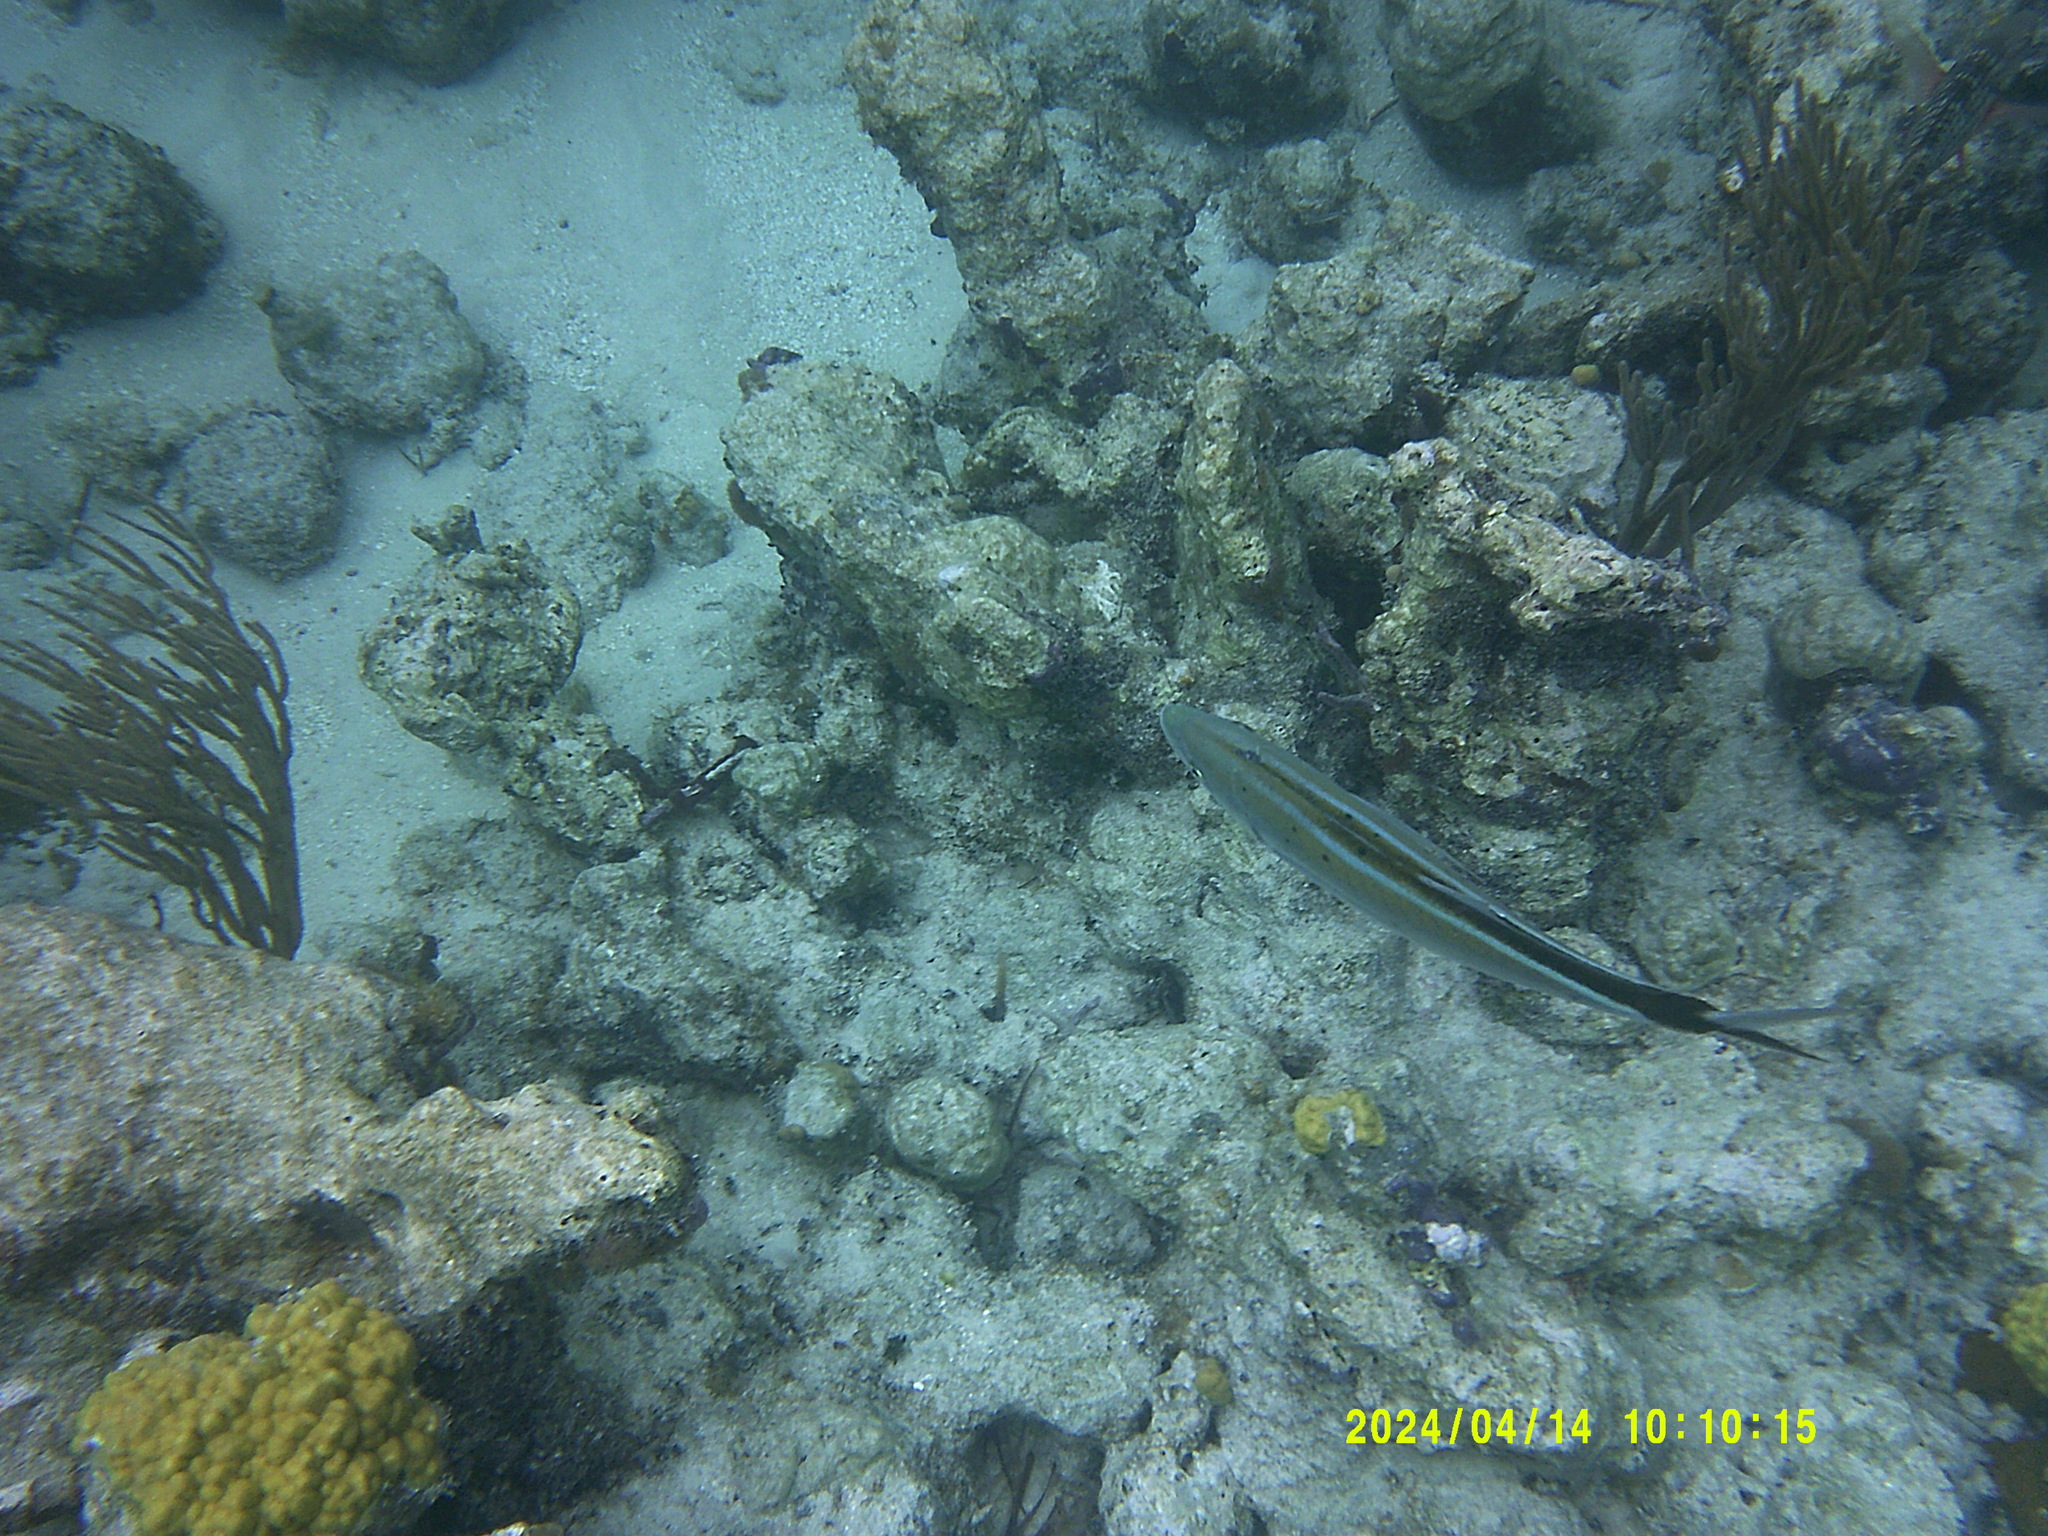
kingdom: Animalia
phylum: Chordata
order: Perciformes
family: Carangidae
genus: Caranx
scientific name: Caranx ruber
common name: Bar jack
